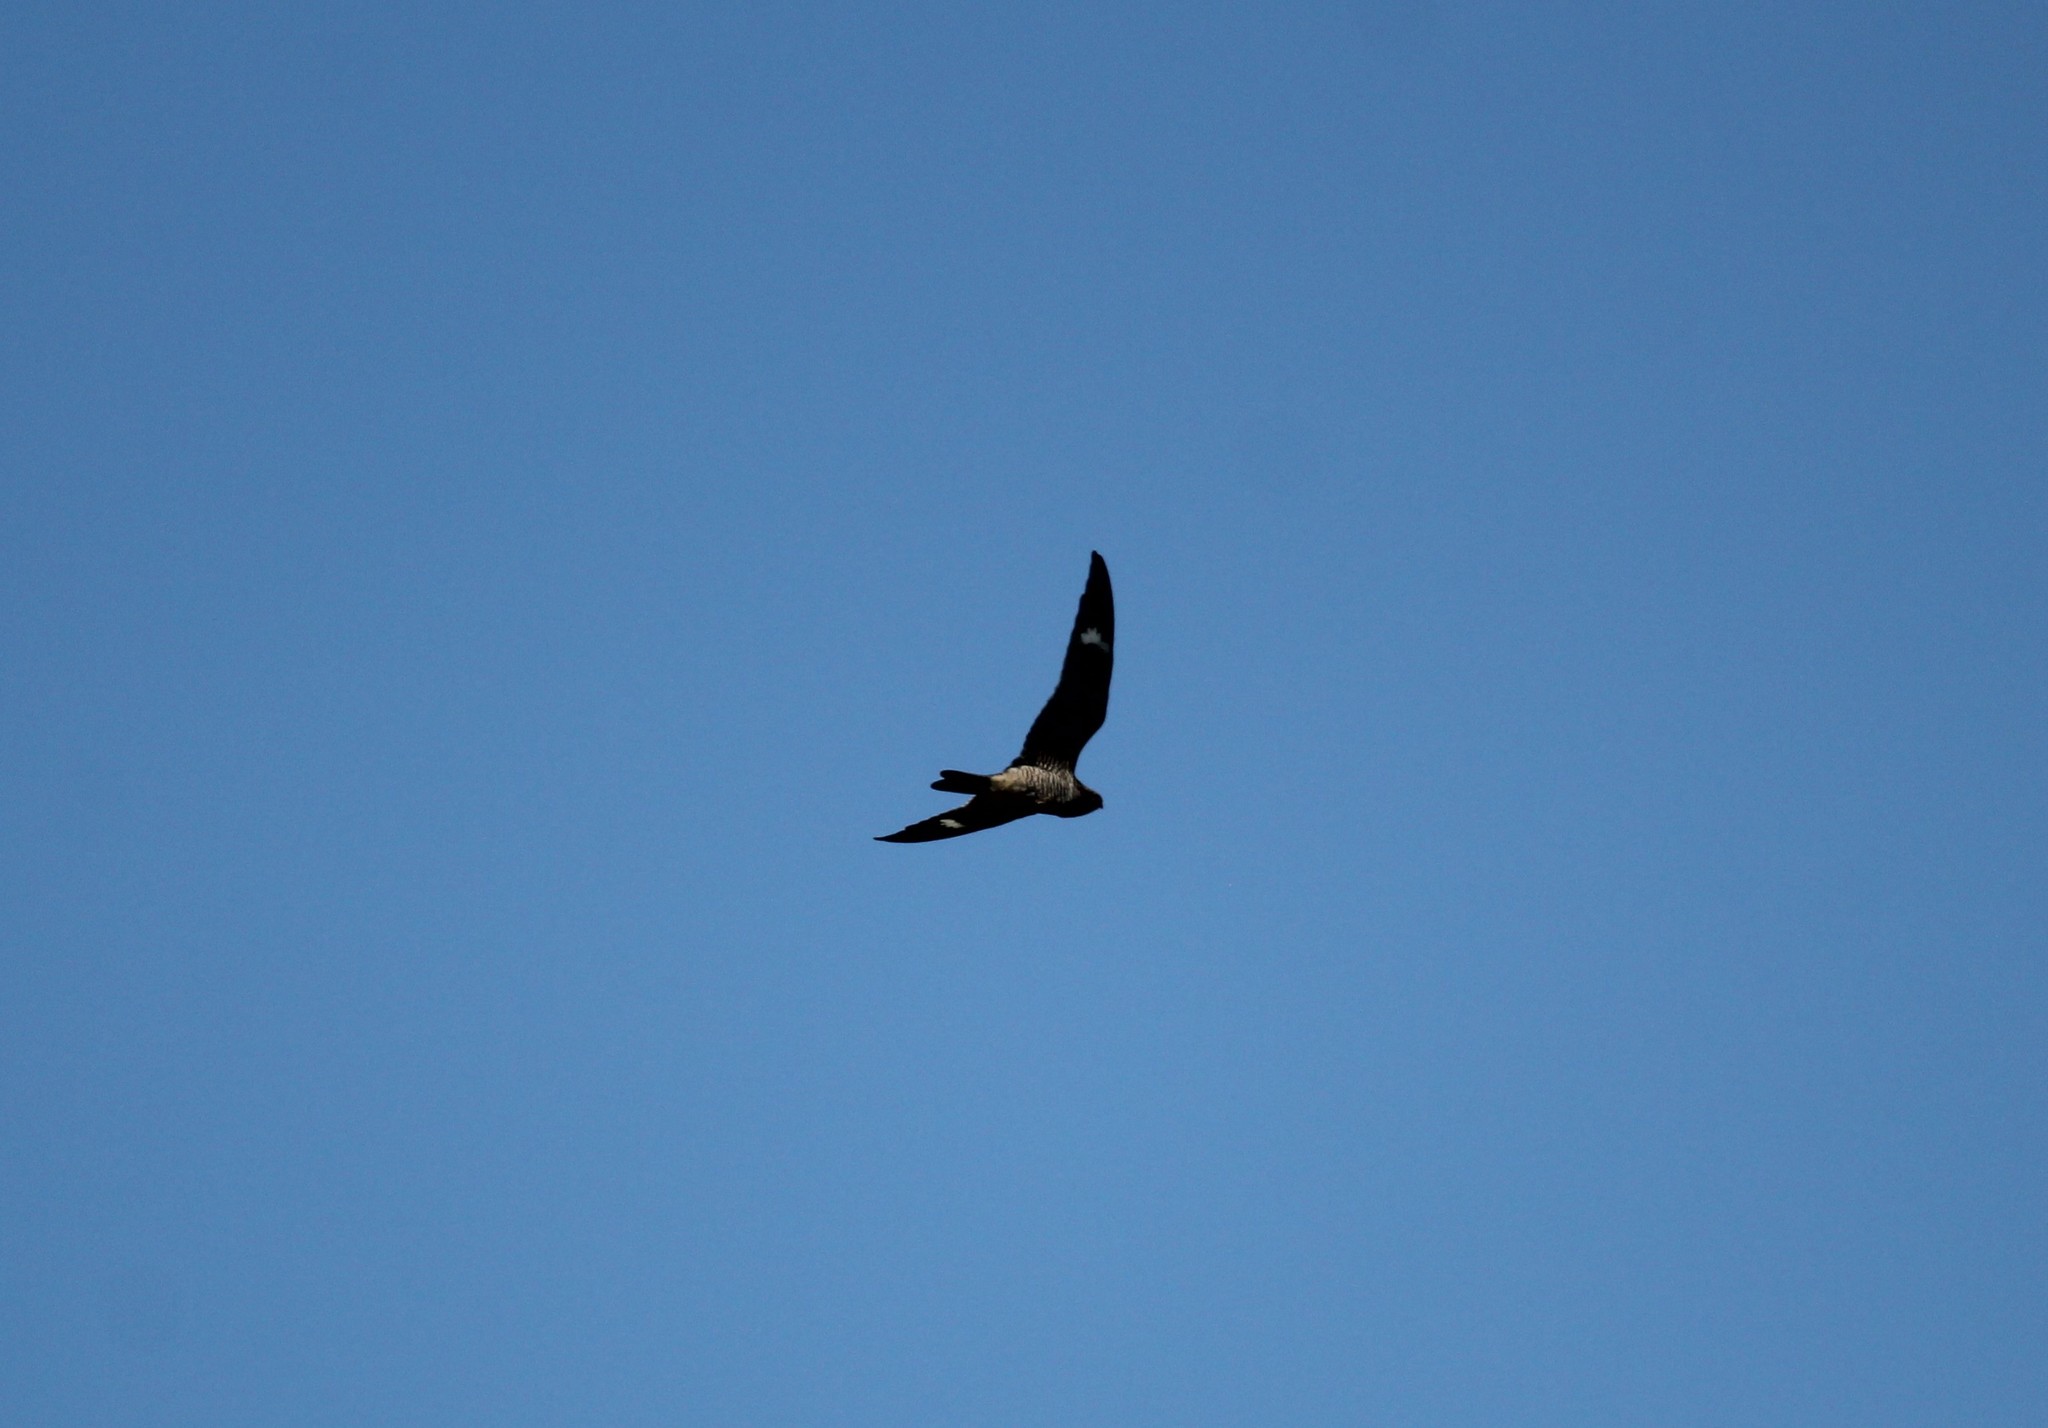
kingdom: Animalia
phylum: Chordata
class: Aves
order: Caprimulgiformes
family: Caprimulgidae
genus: Chordeiles
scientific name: Chordeiles minor
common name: Common nighthawk
